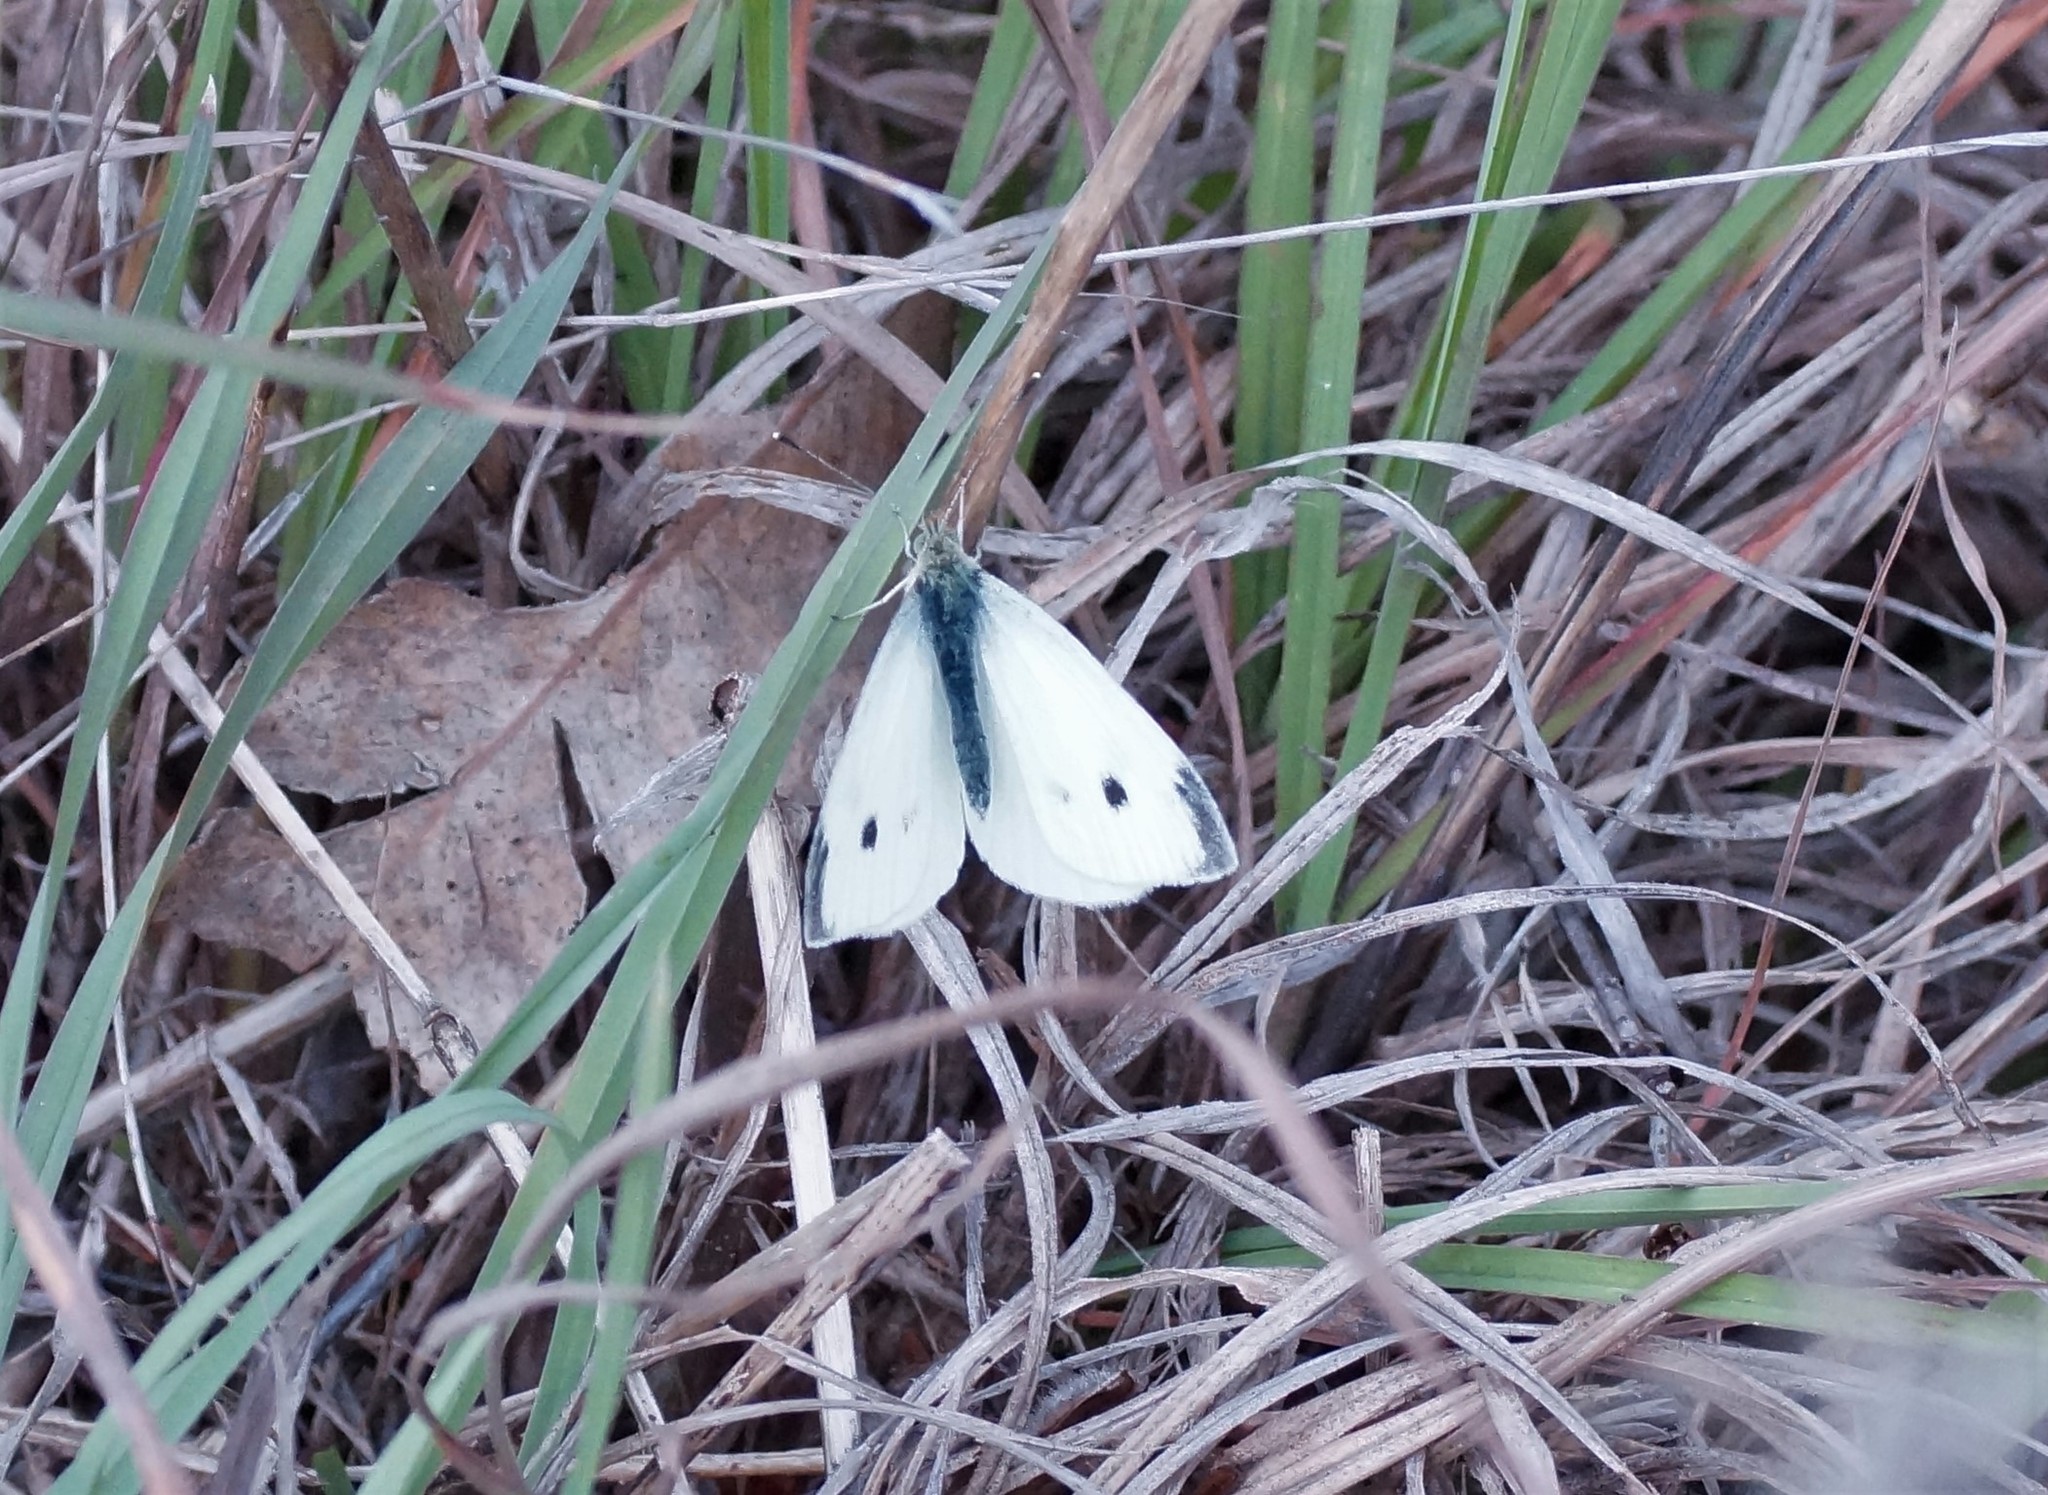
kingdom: Animalia
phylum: Arthropoda
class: Insecta
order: Lepidoptera
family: Pieridae
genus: Pieris
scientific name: Pieris rapae
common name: Small white
